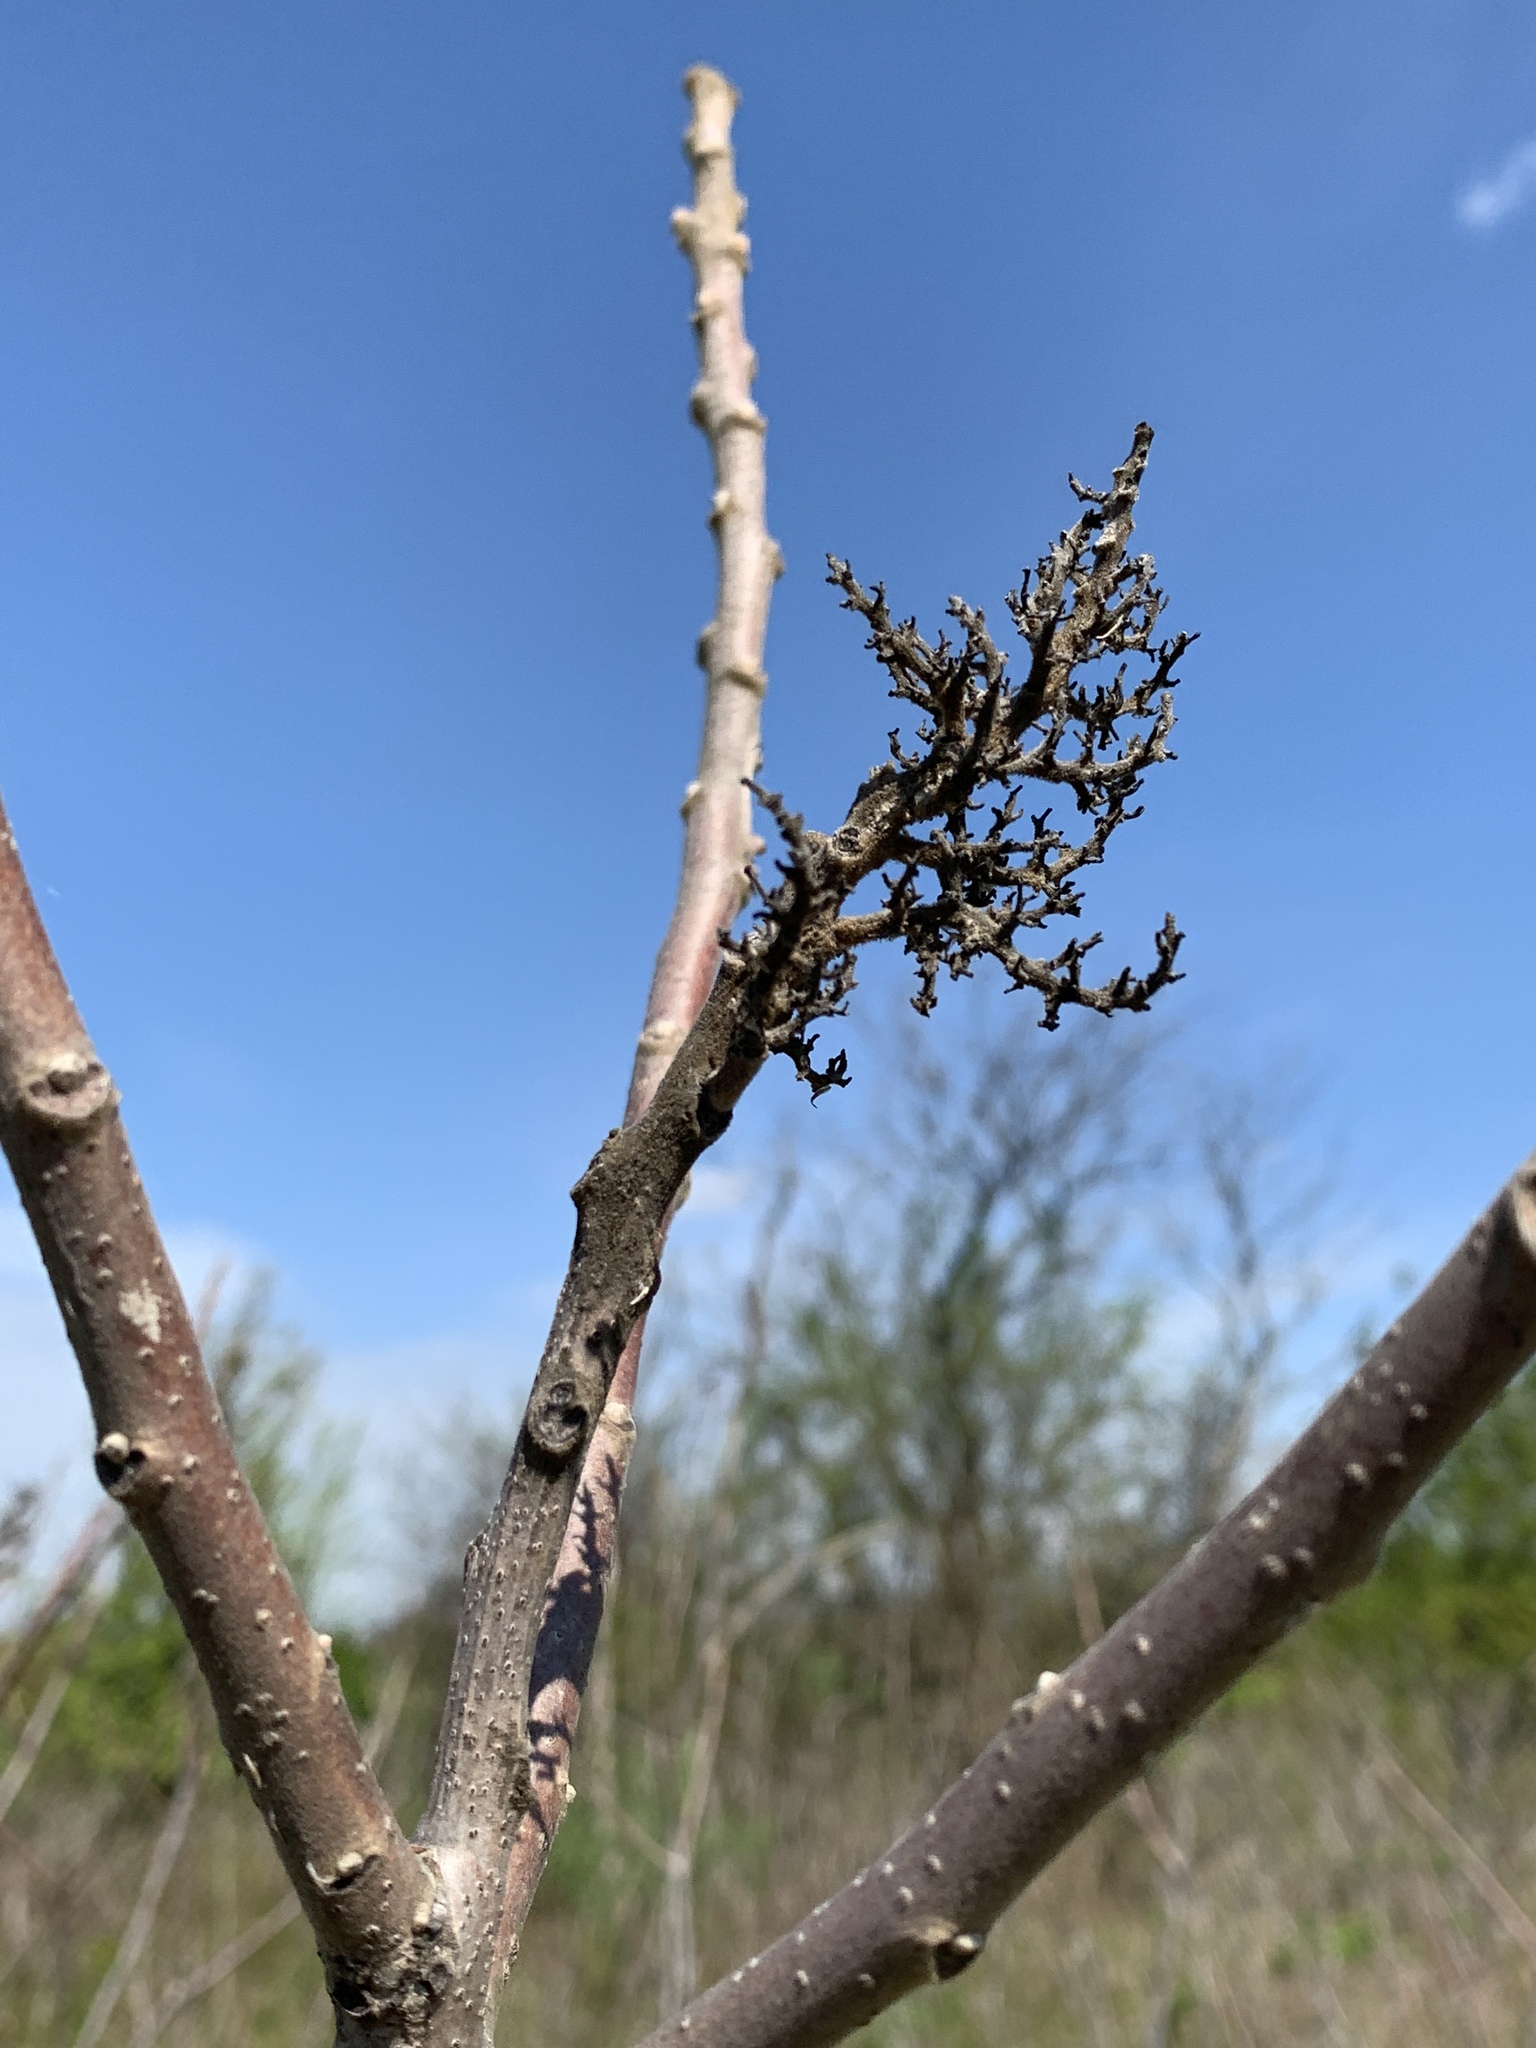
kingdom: Plantae
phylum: Tracheophyta
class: Magnoliopsida
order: Sapindales
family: Anacardiaceae
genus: Rhus
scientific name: Rhus glabra
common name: Scarlet sumac
